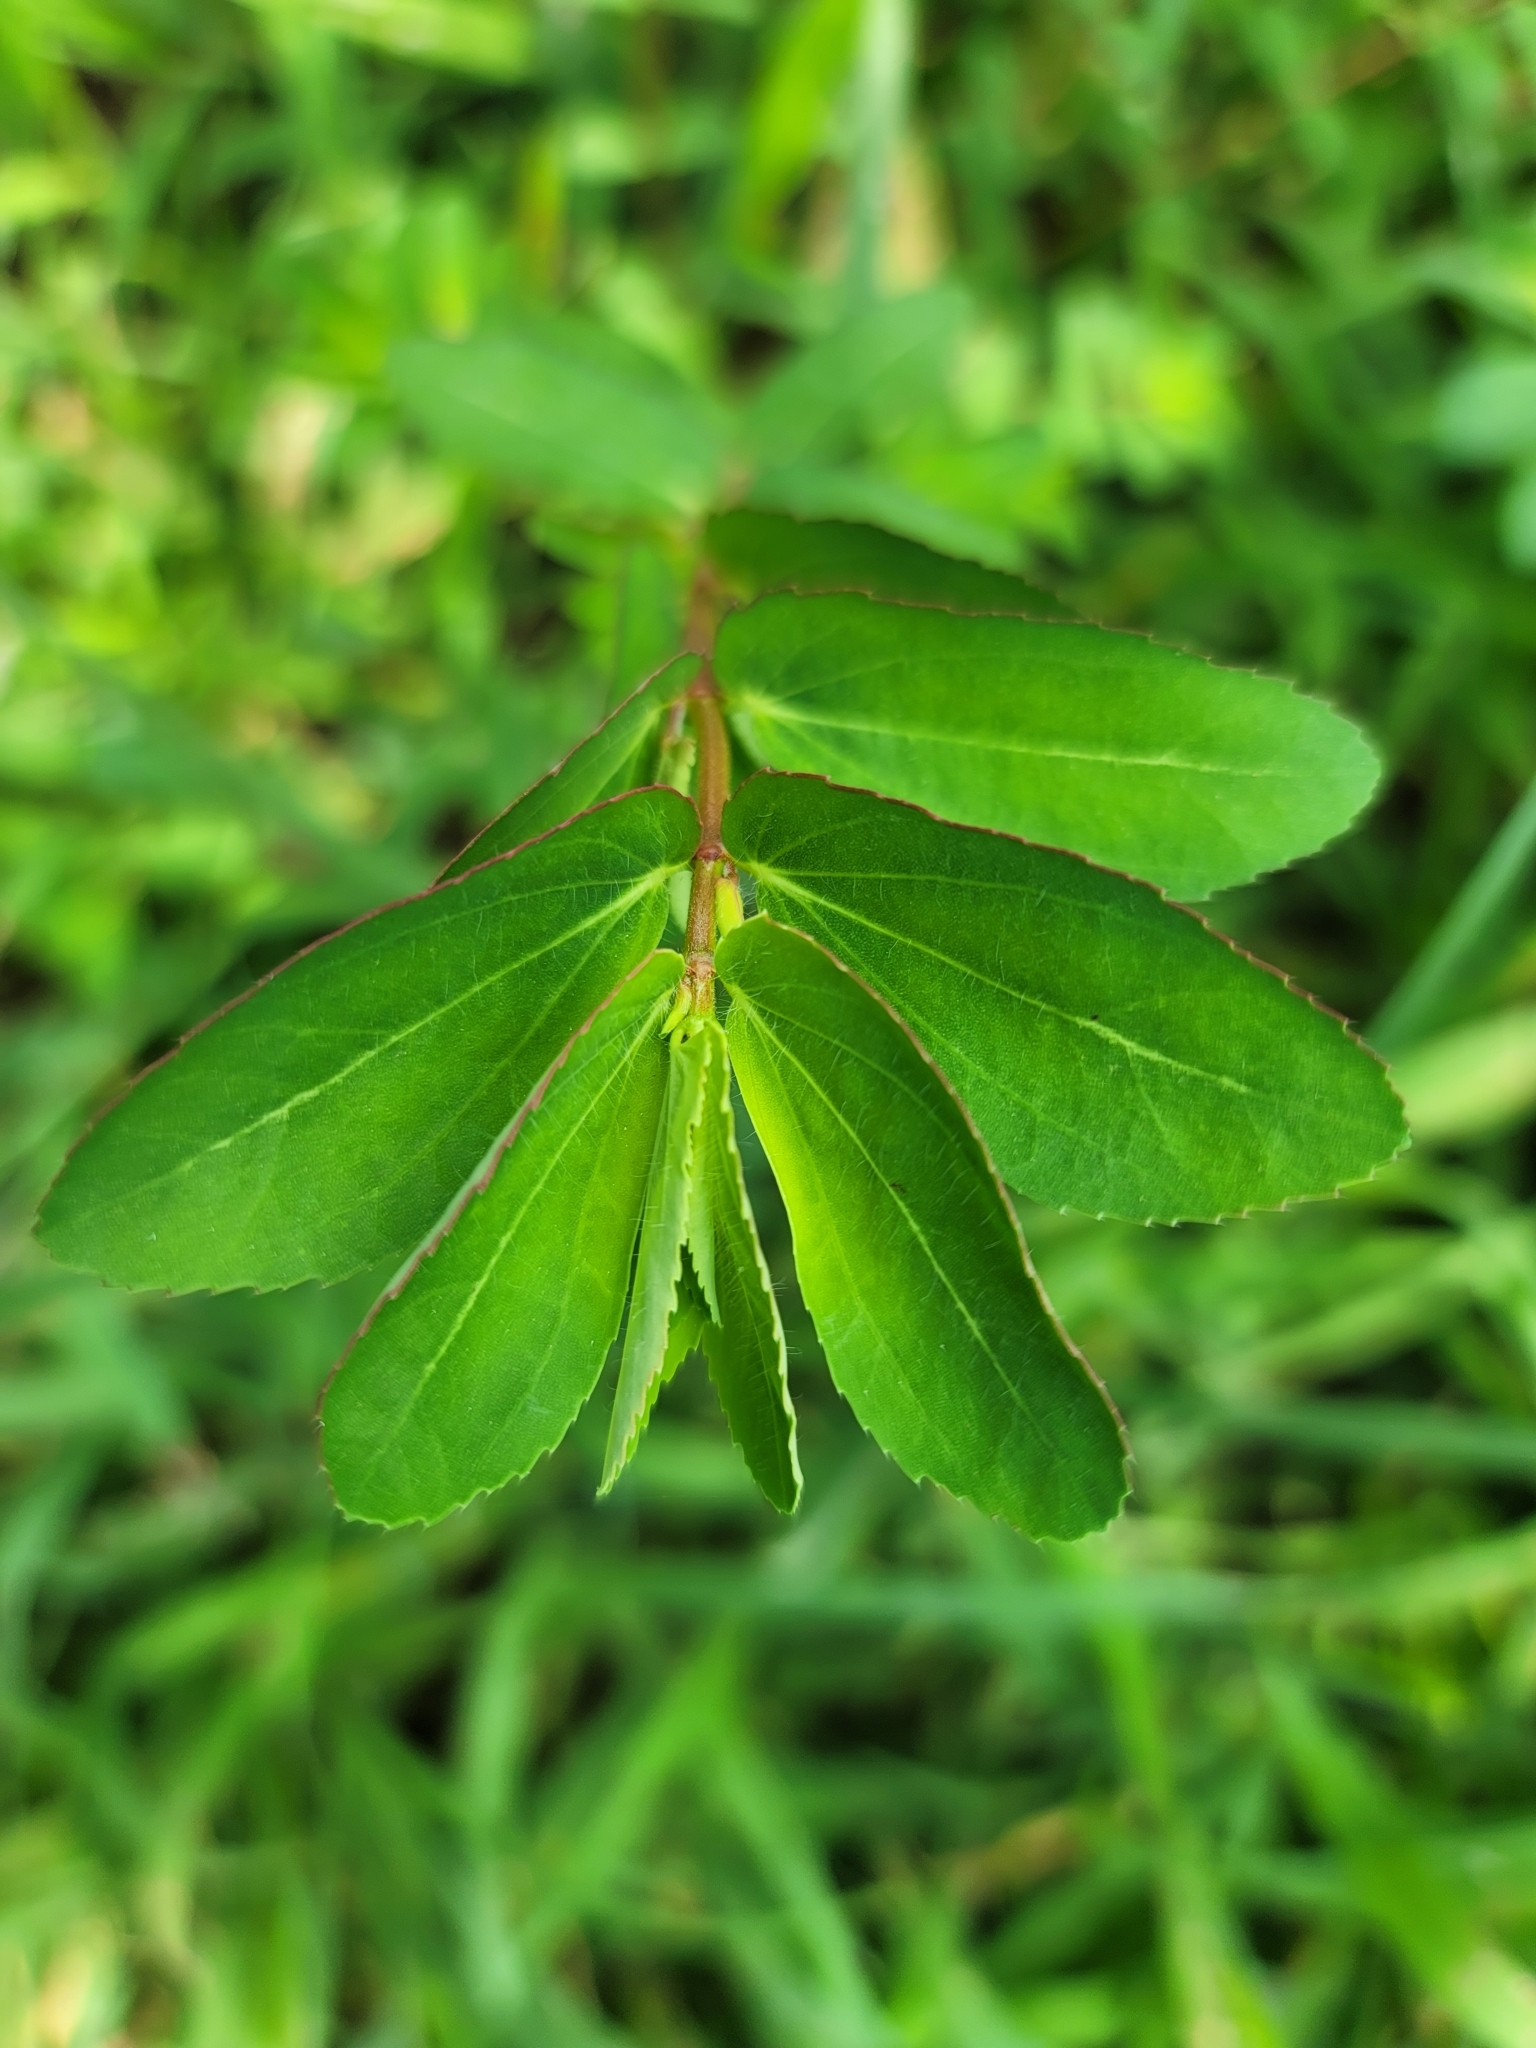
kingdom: Plantae
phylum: Tracheophyta
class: Magnoliopsida
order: Malpighiales
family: Euphorbiaceae
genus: Euphorbia
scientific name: Euphorbia nutans
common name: Eyebane
